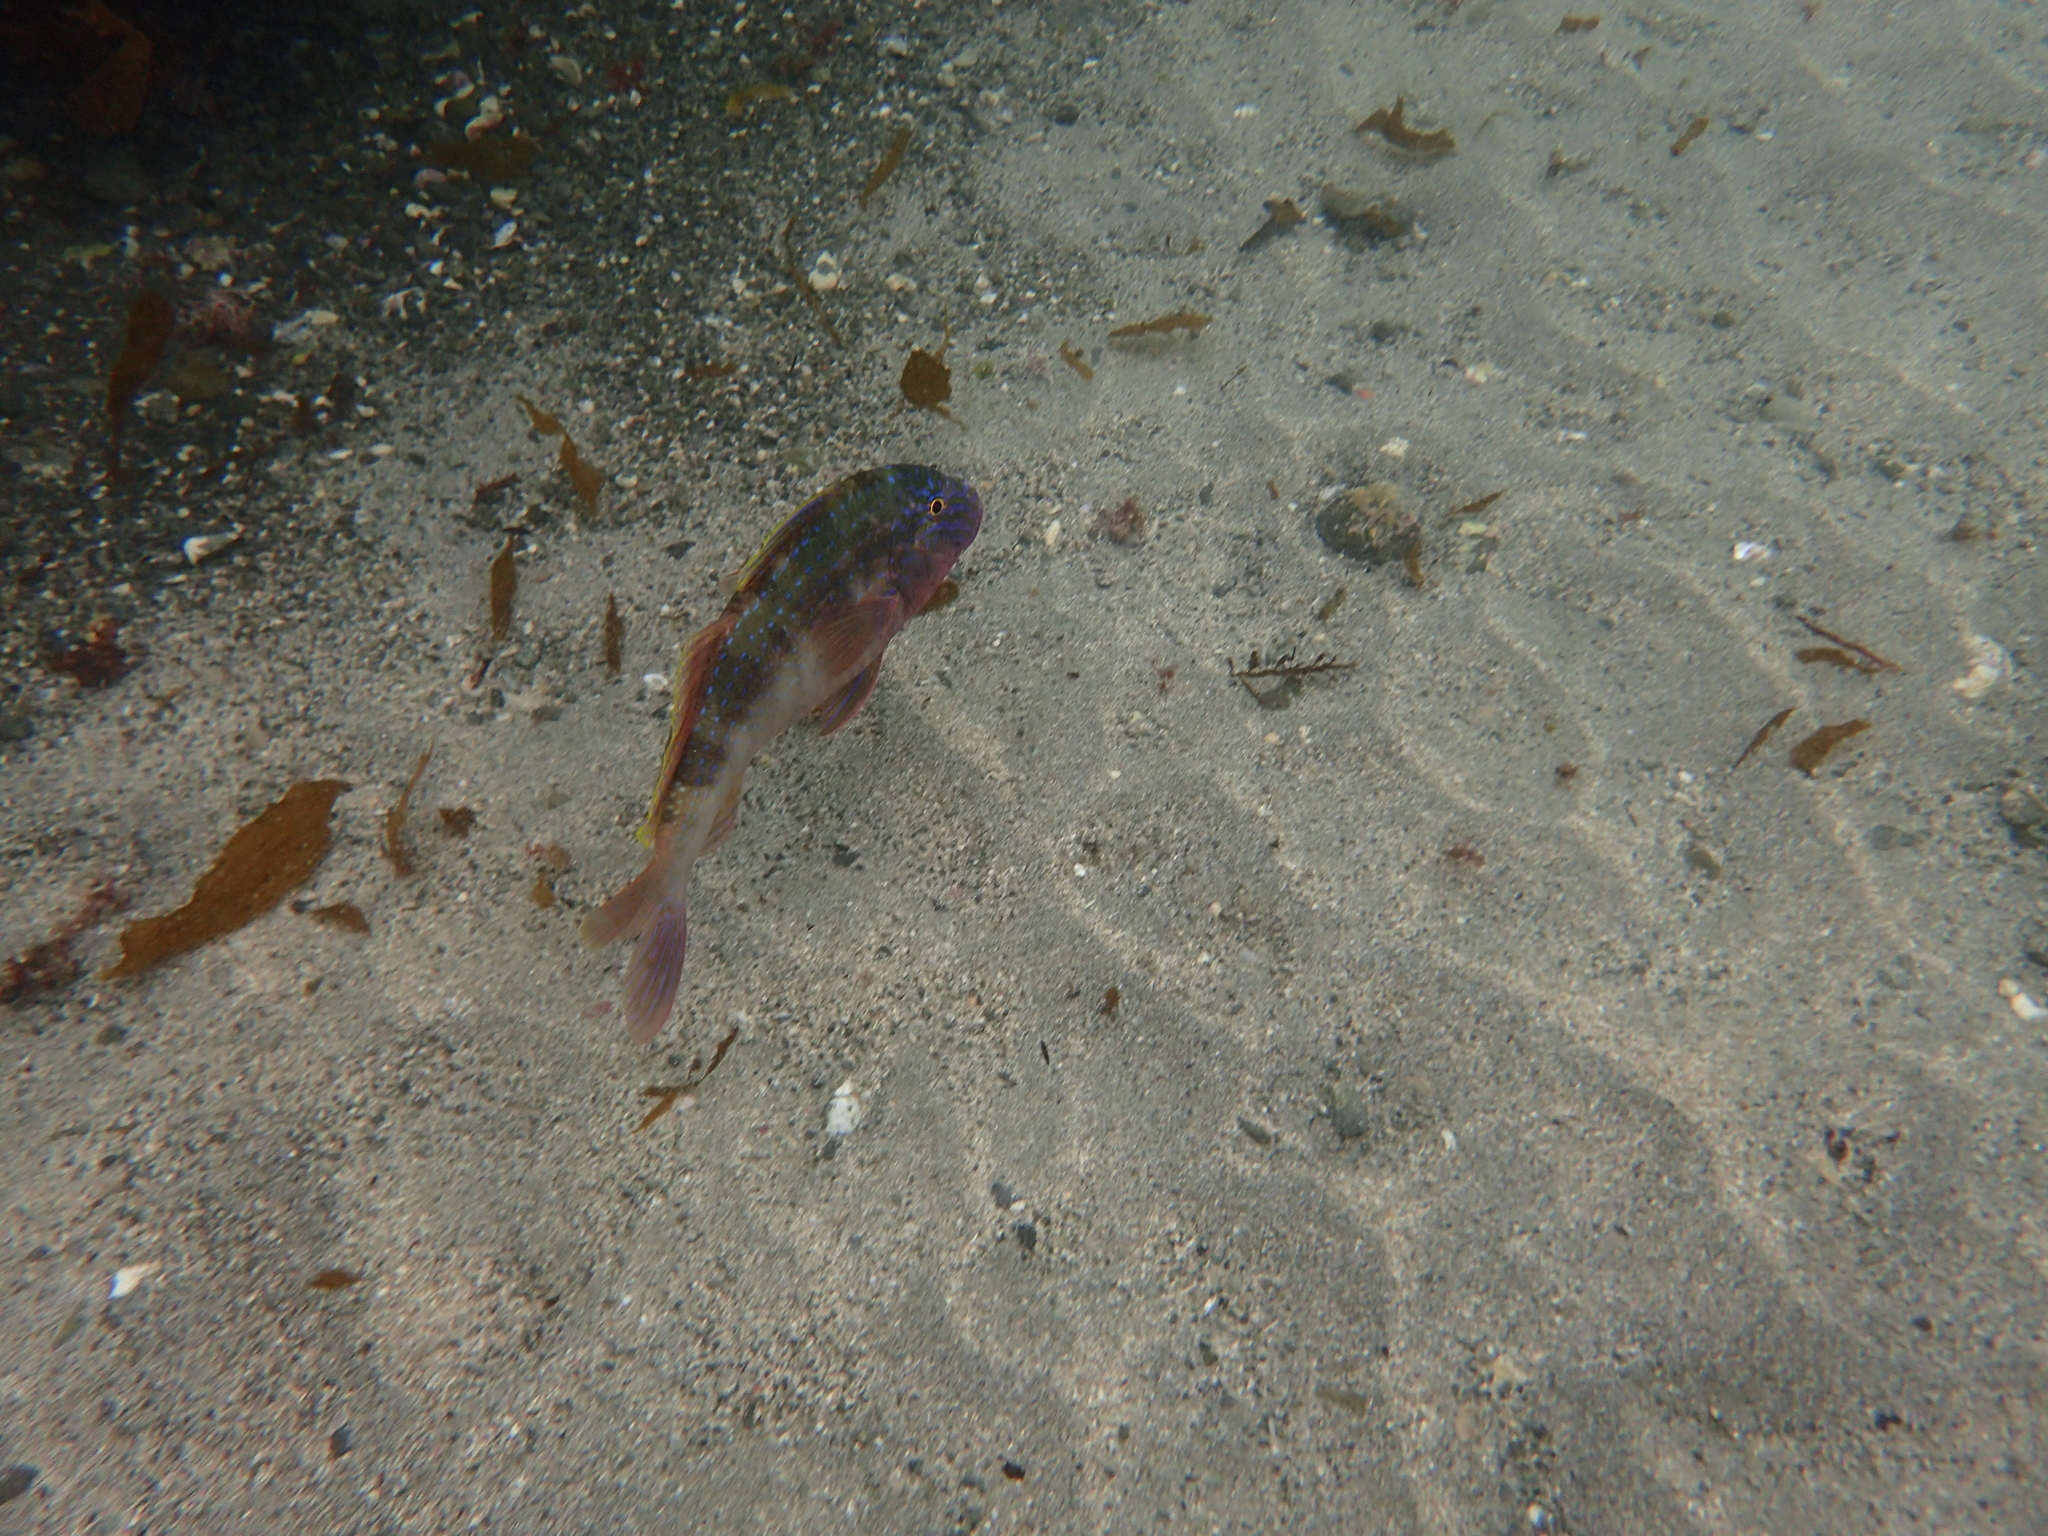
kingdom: Animalia
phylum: Chordata
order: Perciformes
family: Mullidae
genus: Upeneichthys
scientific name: Upeneichthys lineatus
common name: Red mullet
